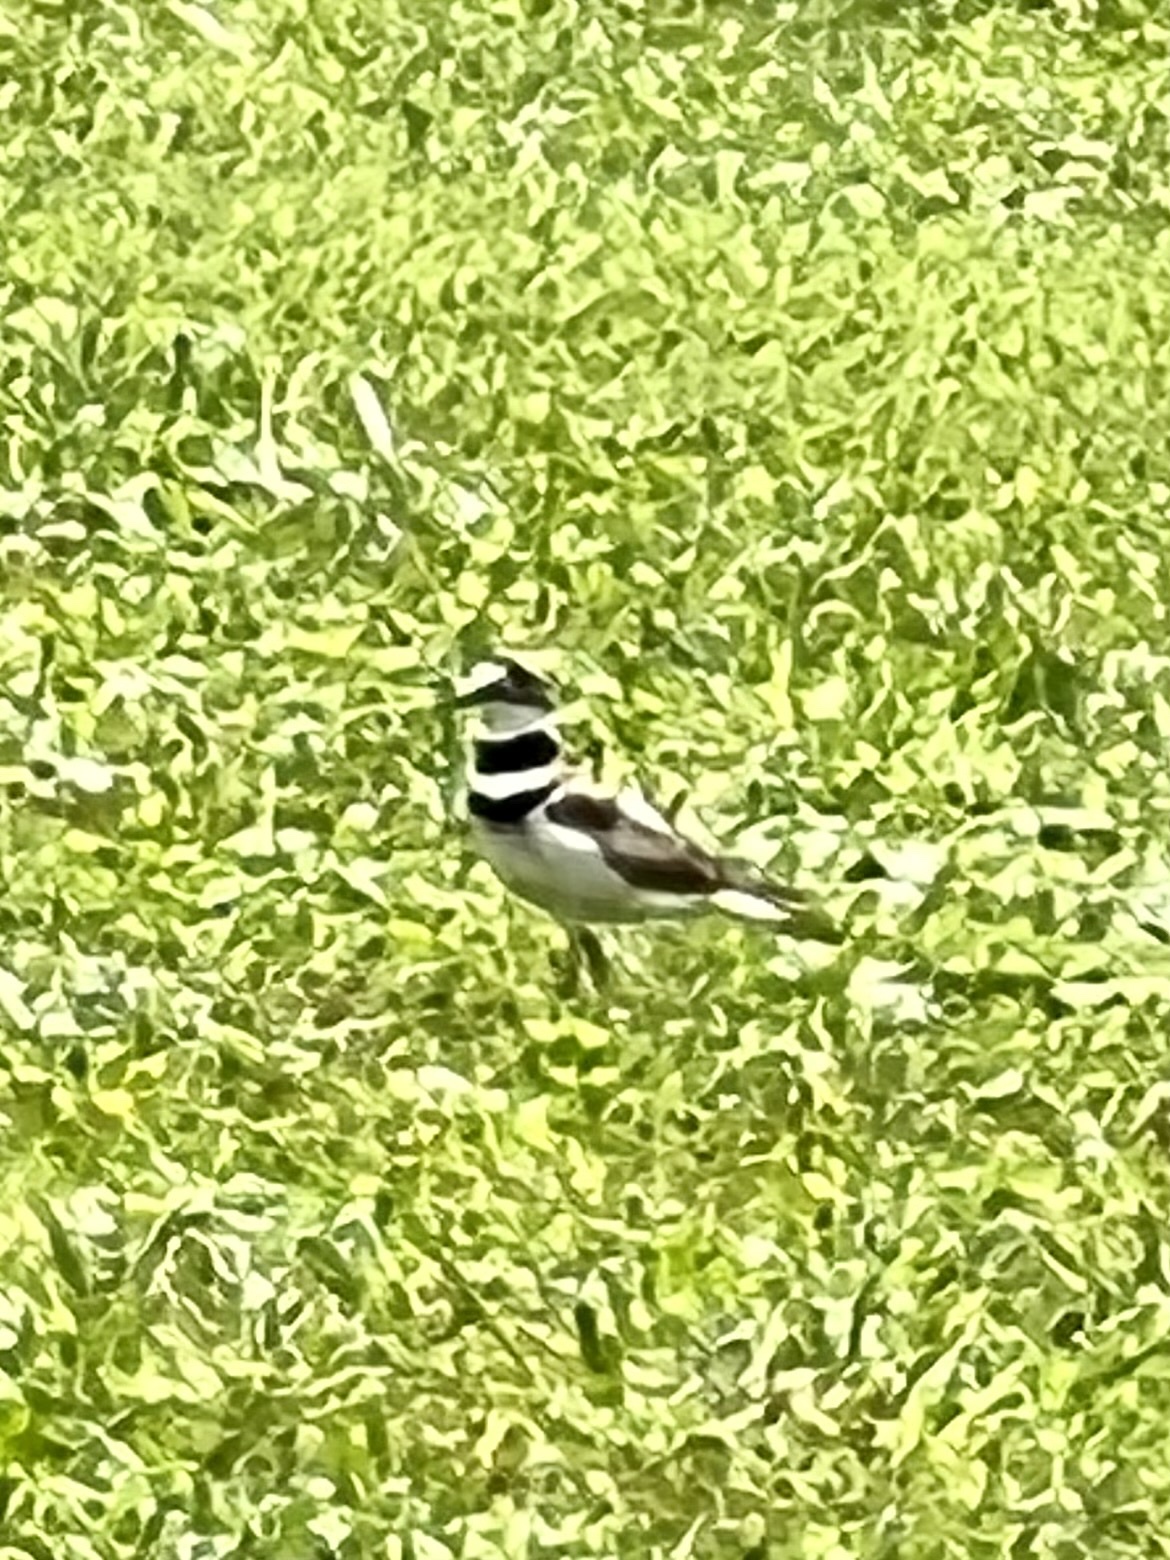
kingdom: Animalia
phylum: Chordata
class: Aves
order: Charadriiformes
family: Charadriidae
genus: Charadrius
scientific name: Charadrius vociferus
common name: Killdeer
